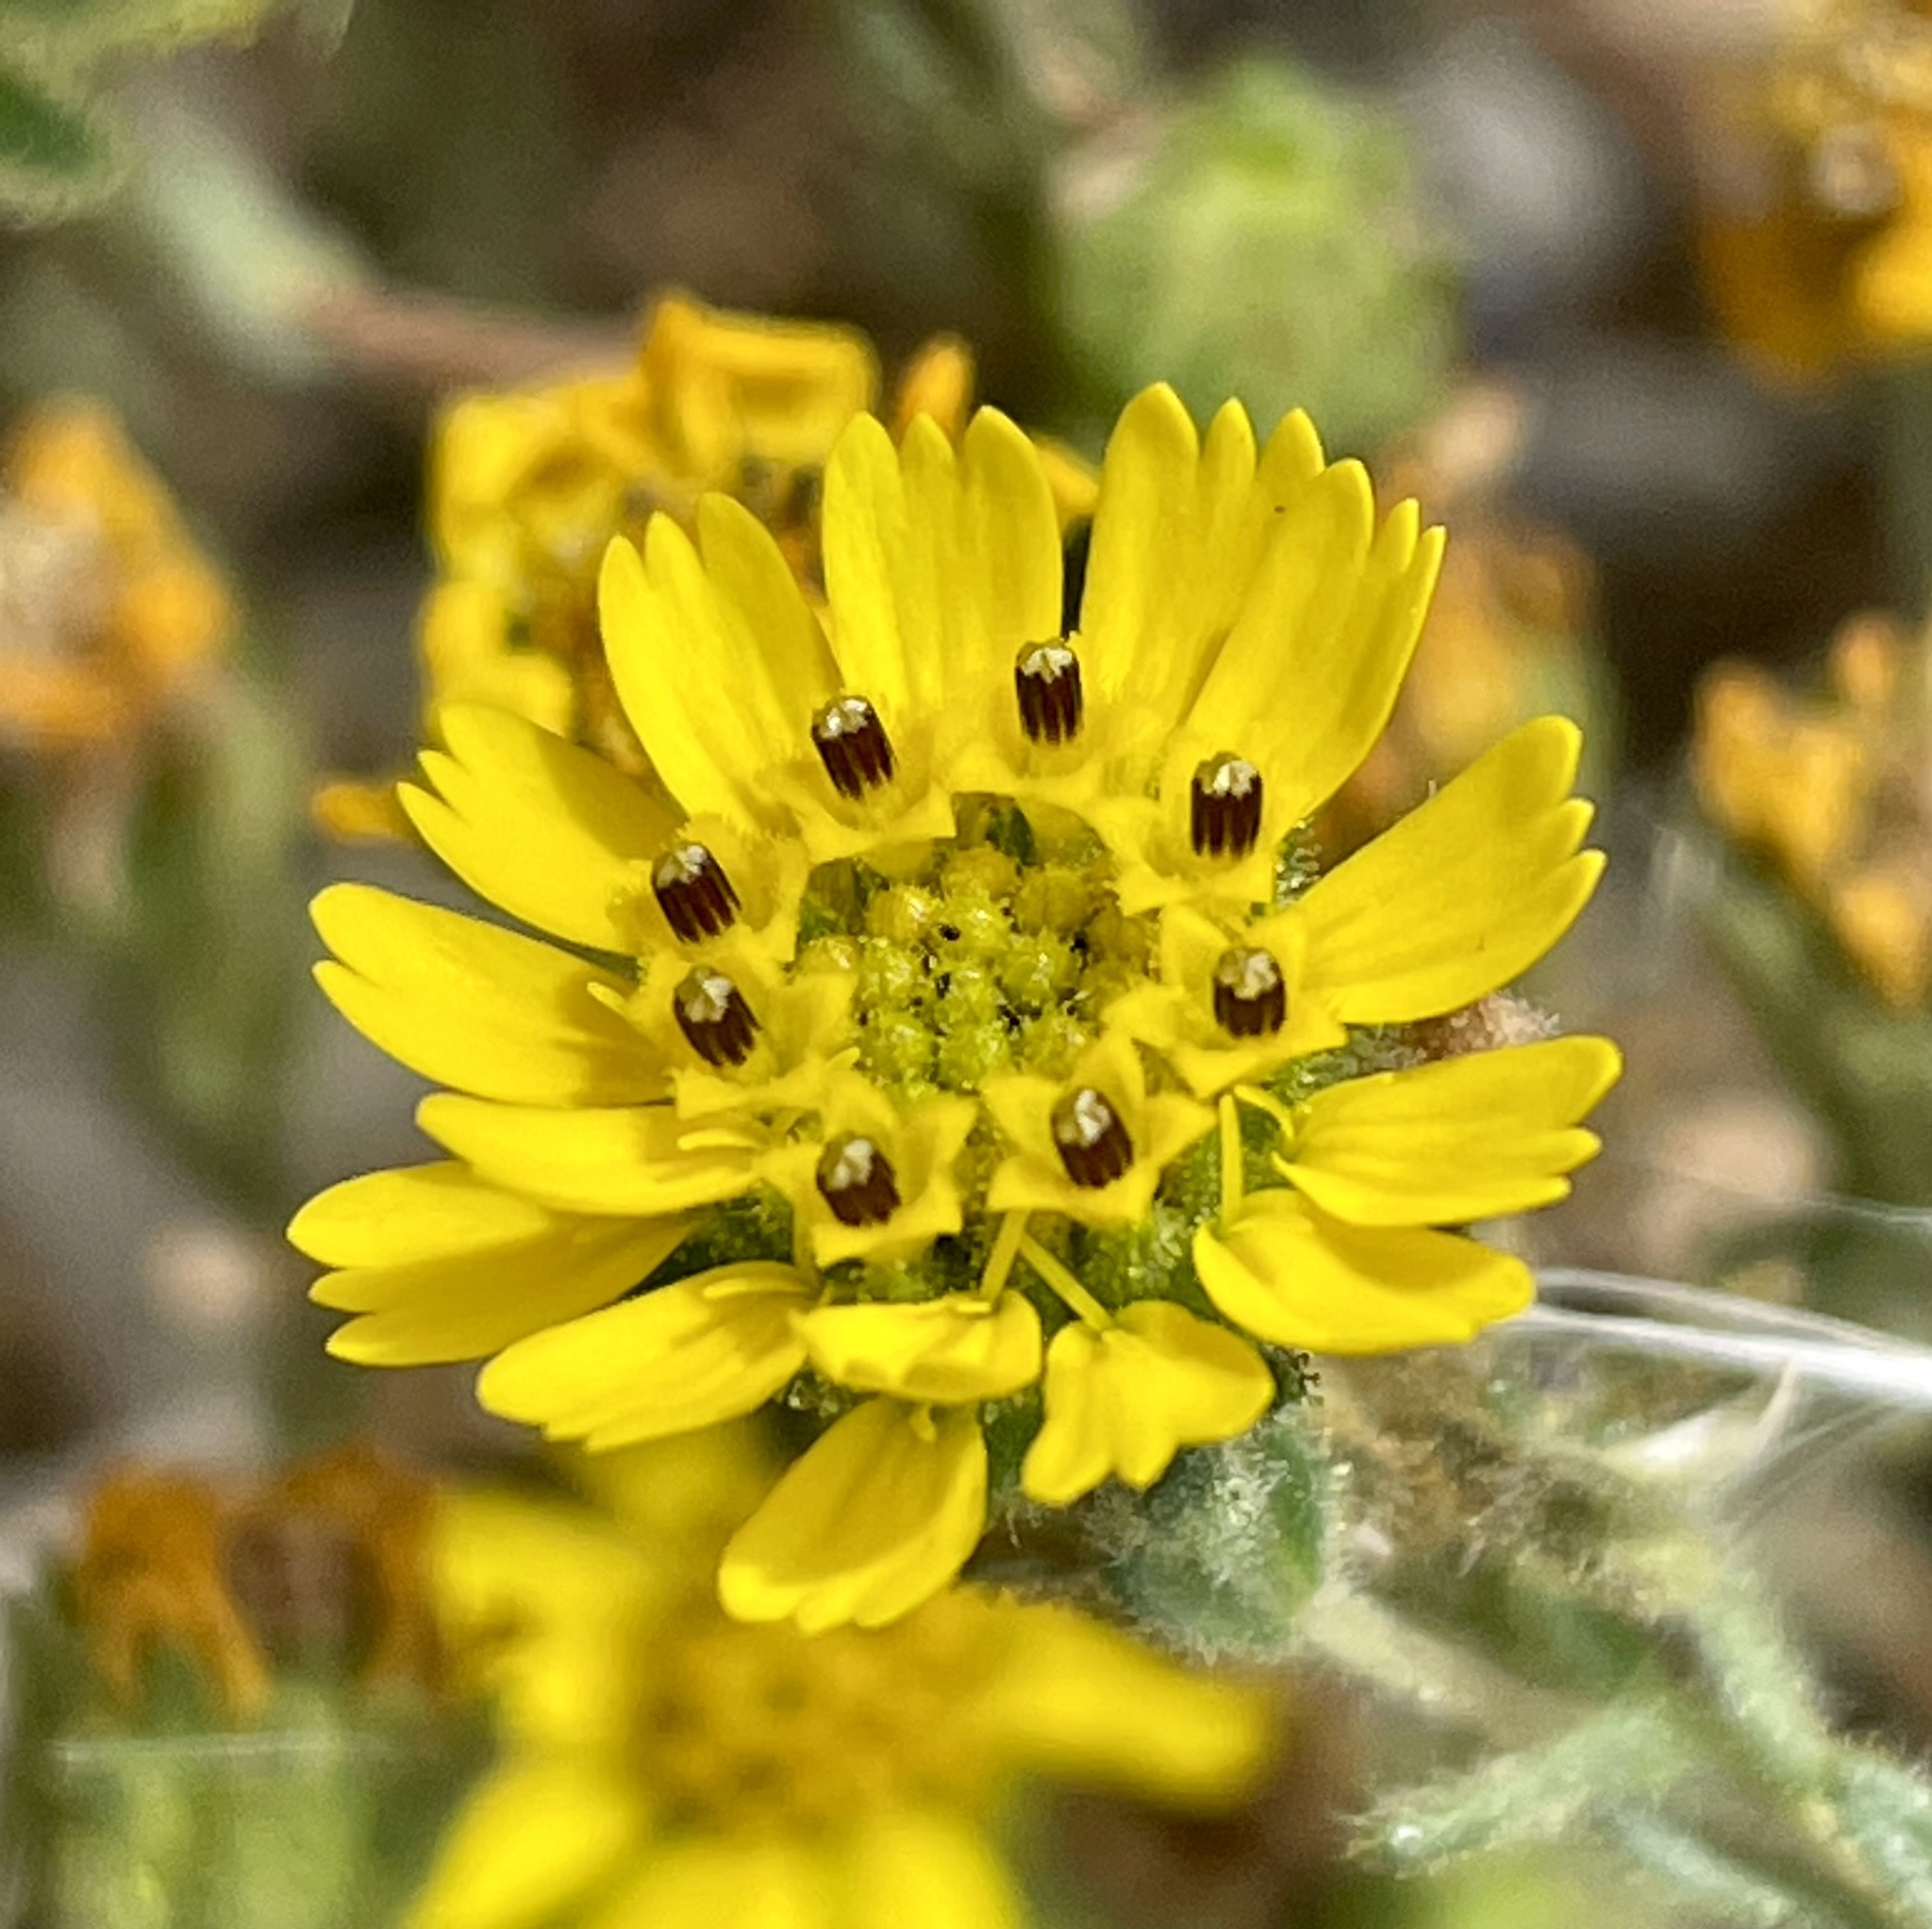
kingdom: Plantae
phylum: Tracheophyta
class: Magnoliopsida
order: Asterales
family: Asteraceae
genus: Deinandra
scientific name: Deinandra corymbosa
